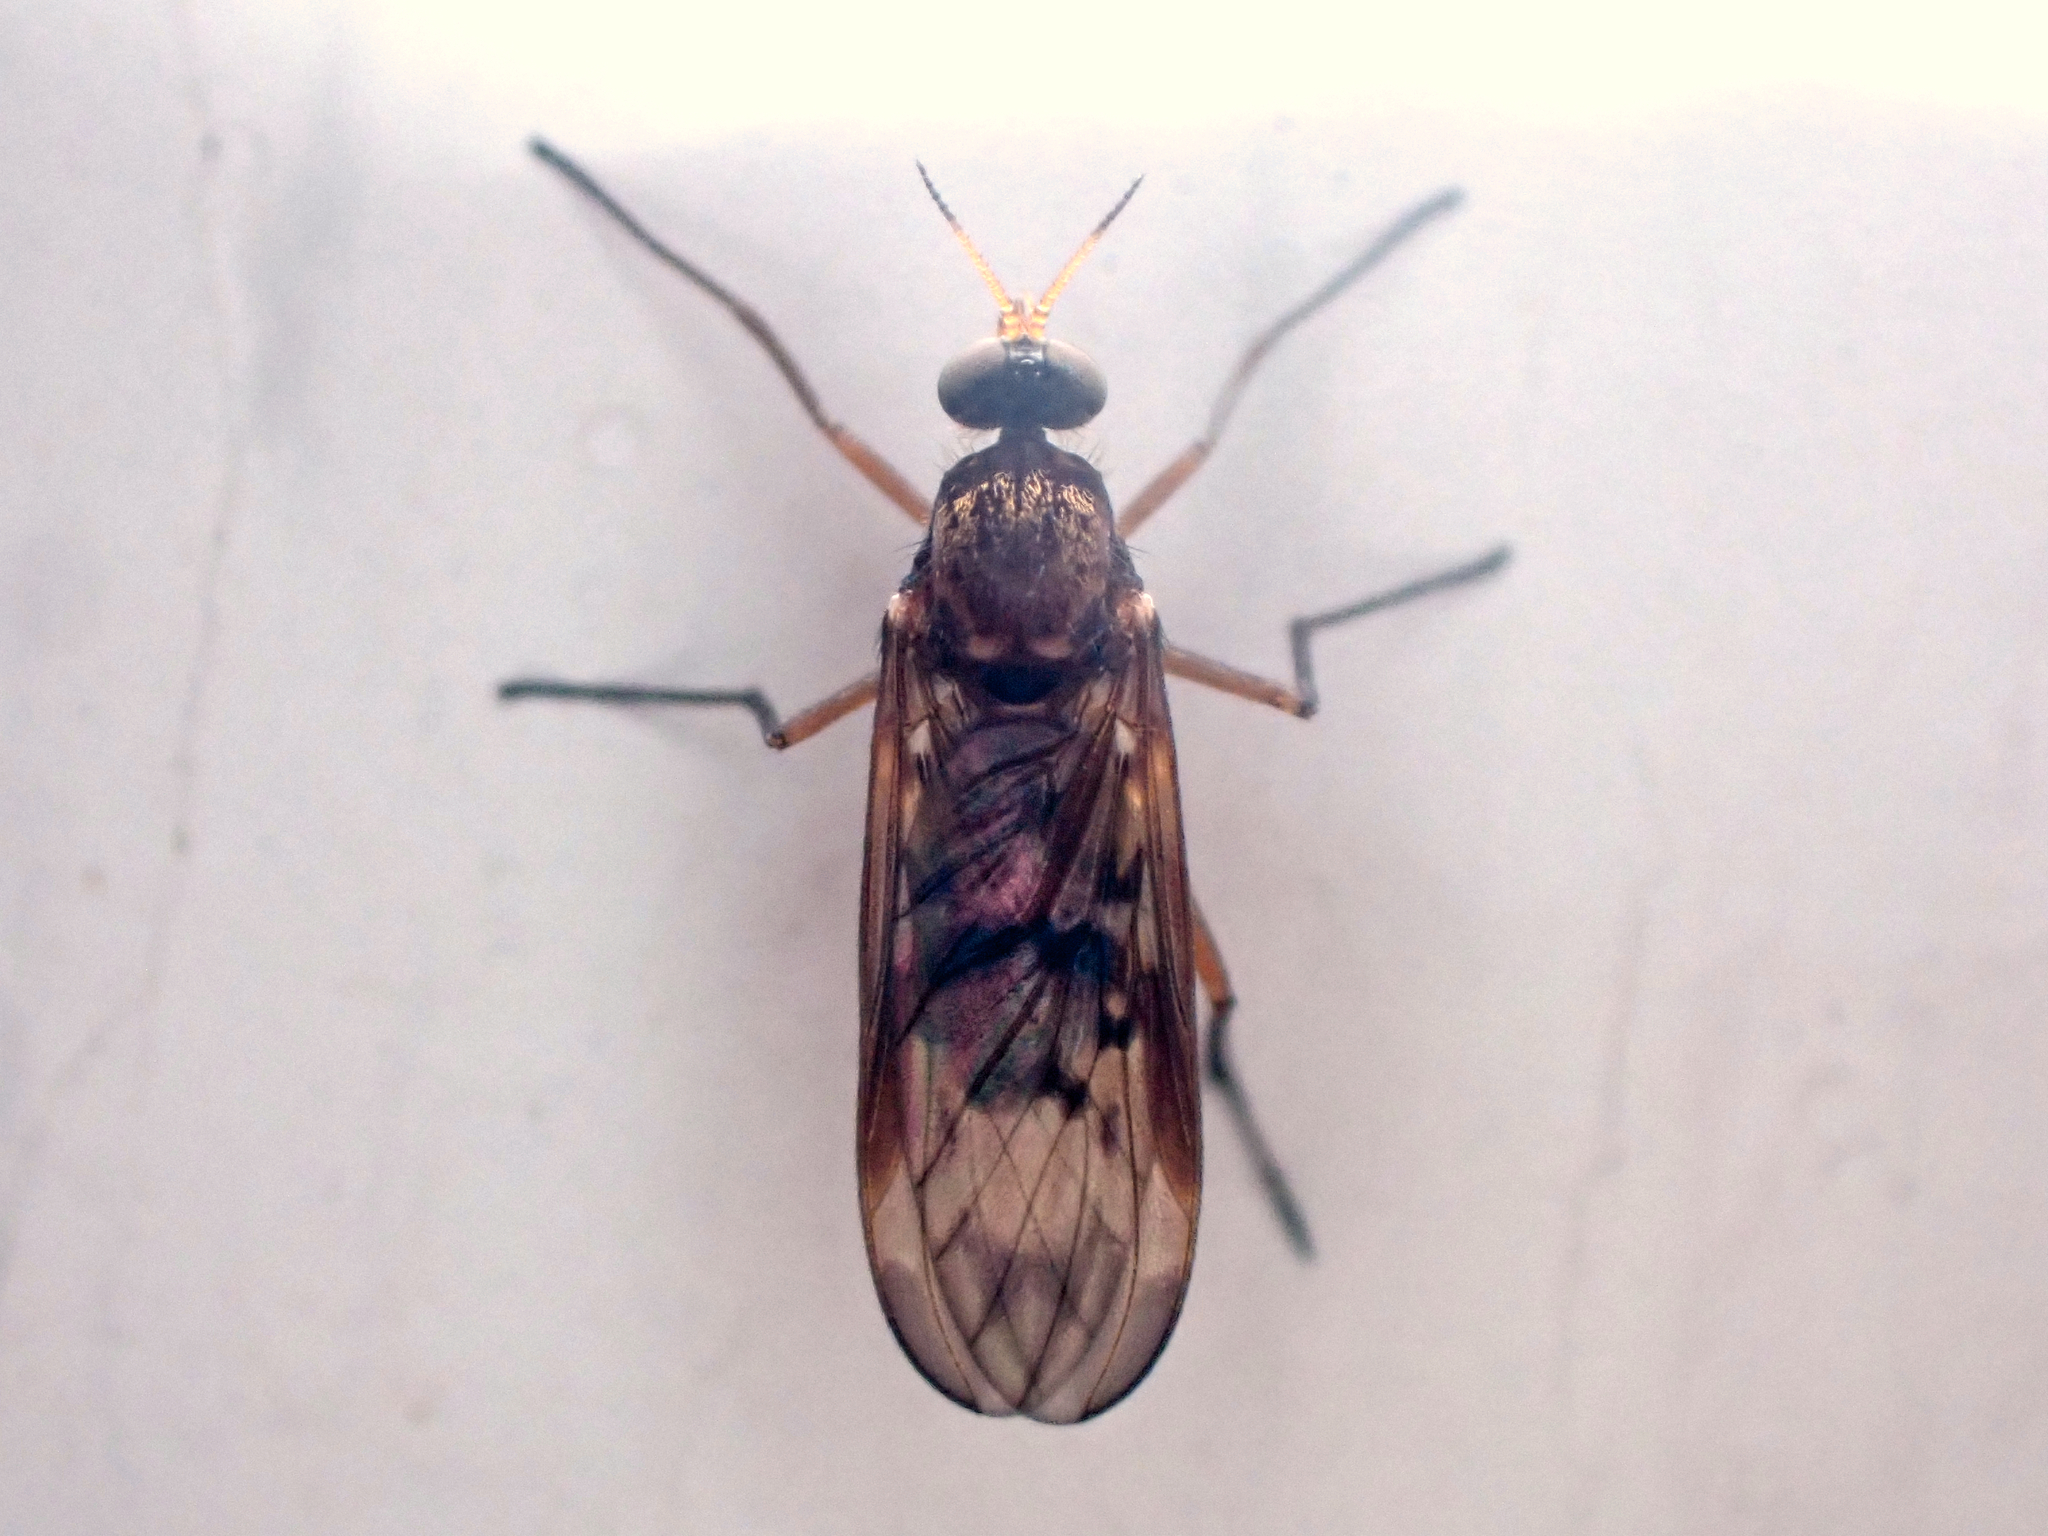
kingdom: Animalia
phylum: Arthropoda
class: Insecta
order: Diptera
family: Anisopodidae
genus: Sylvicola
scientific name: Sylvicola neozelandicus
